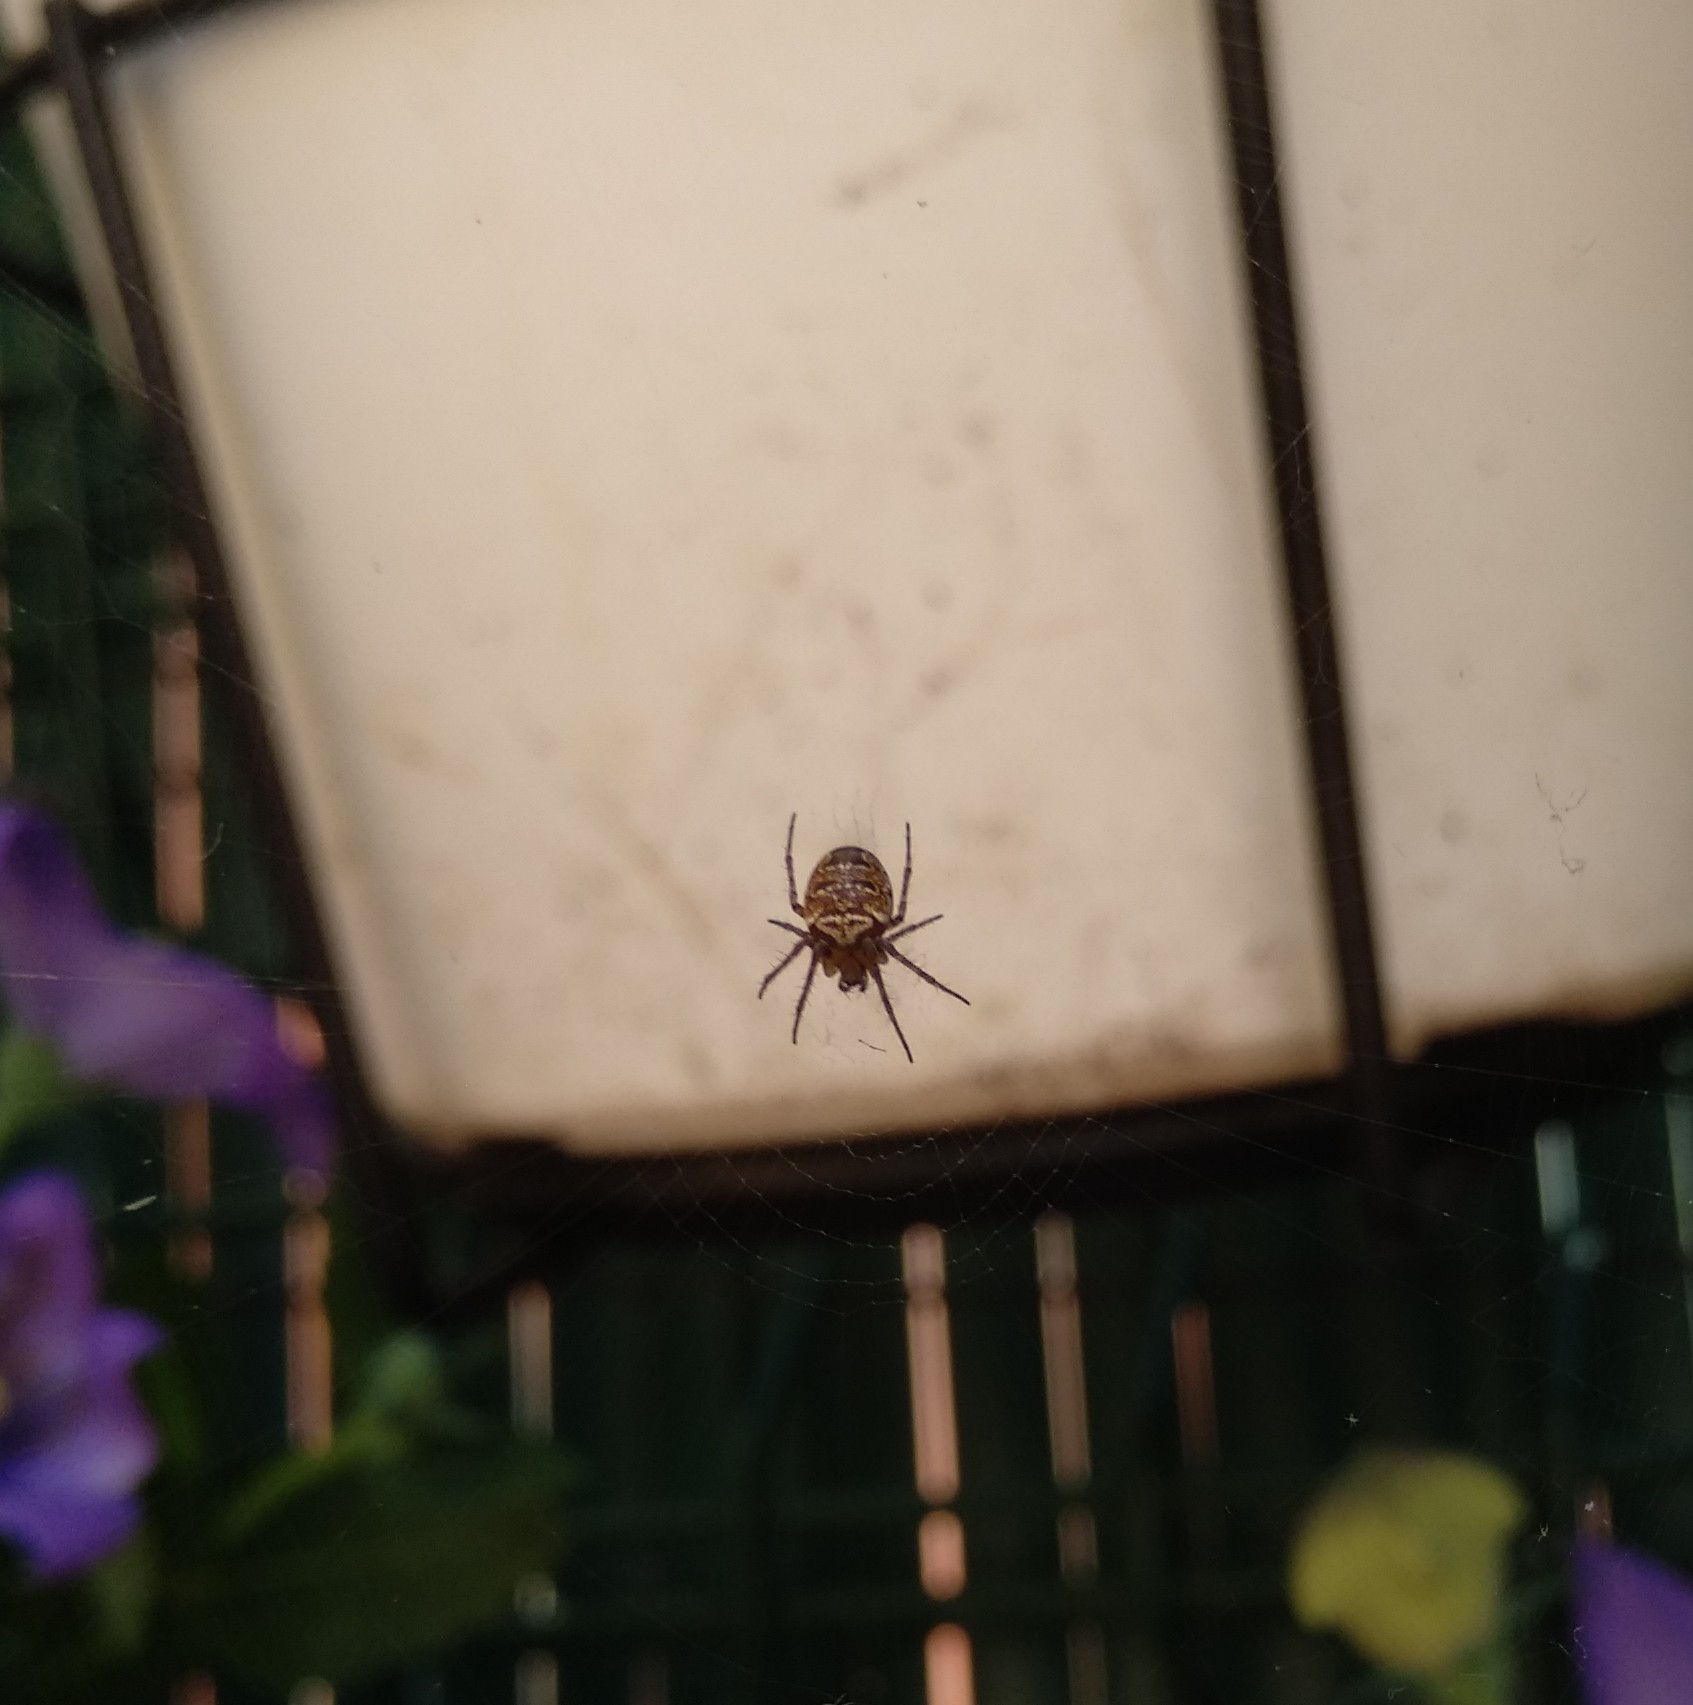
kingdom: Animalia
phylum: Arthropoda
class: Arachnida
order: Araneae
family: Araneidae
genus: Zilla
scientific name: Zilla diodia
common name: Zilla diodia
